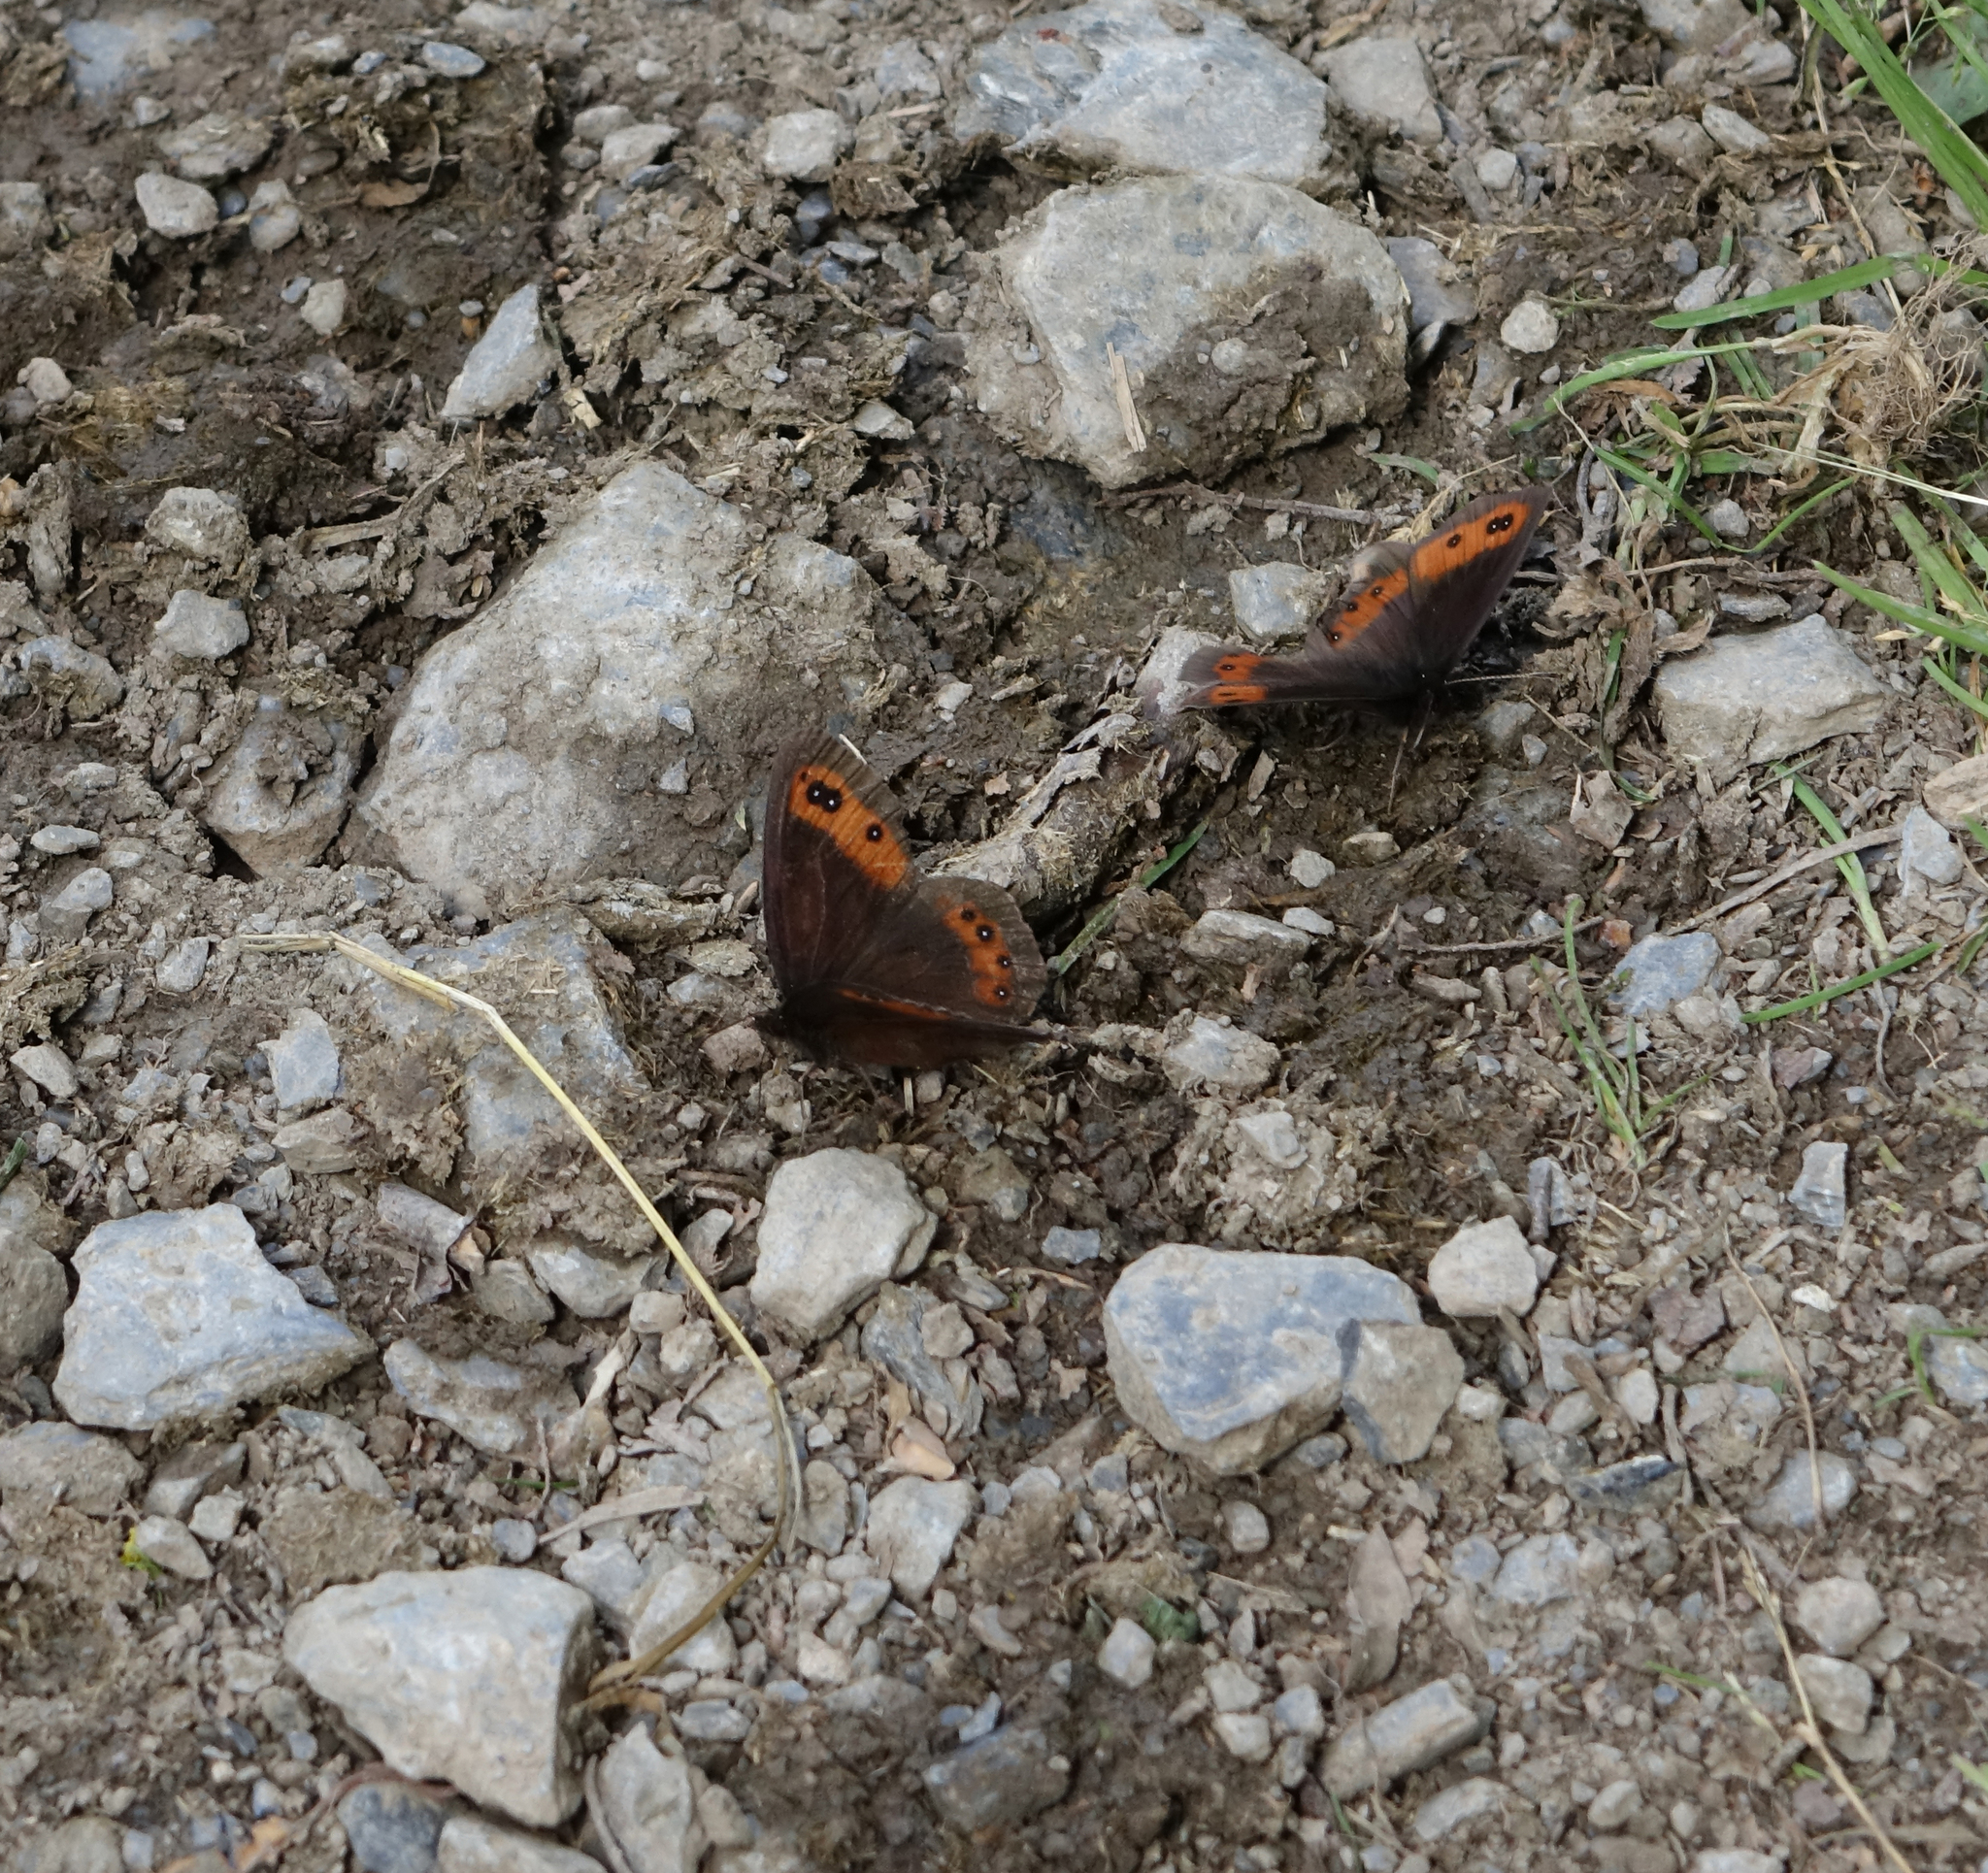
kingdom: Animalia
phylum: Arthropoda
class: Insecta
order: Lepidoptera
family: Nymphalidae
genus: Erebia
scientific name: Erebia aethiops
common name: Scotch argus
